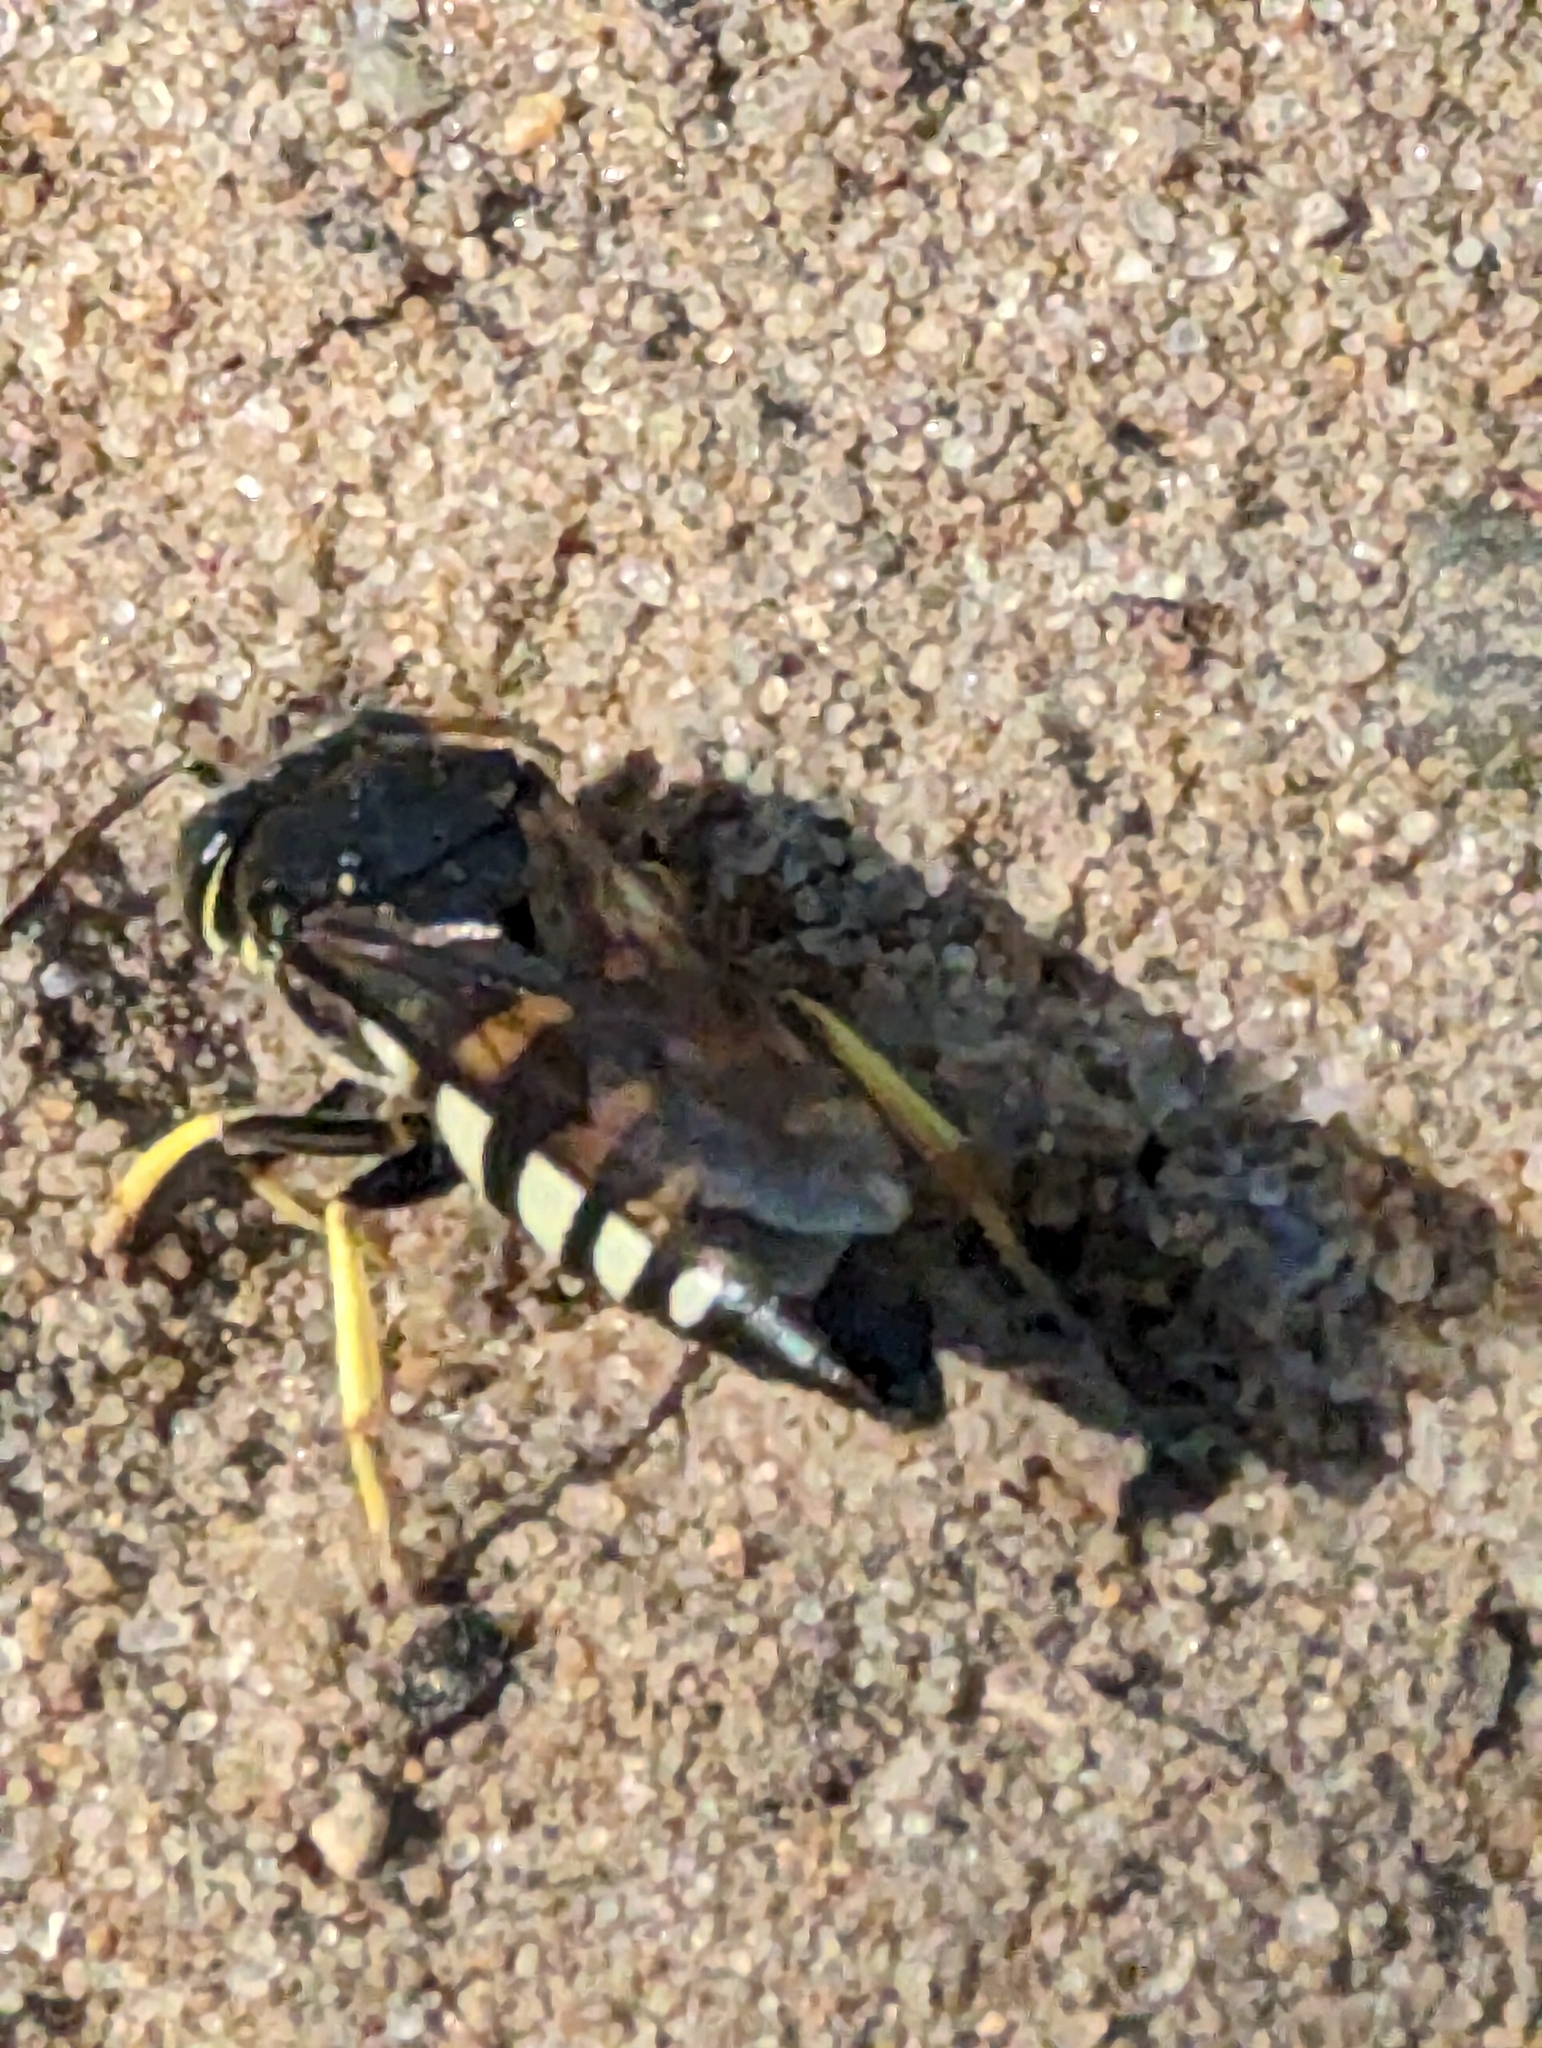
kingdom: Animalia
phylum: Arthropoda
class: Insecta
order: Hymenoptera
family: Crabronidae
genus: Bicyrtes
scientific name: Bicyrtes quadrifasciatus
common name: Four-banded stink bug hunter wasp
